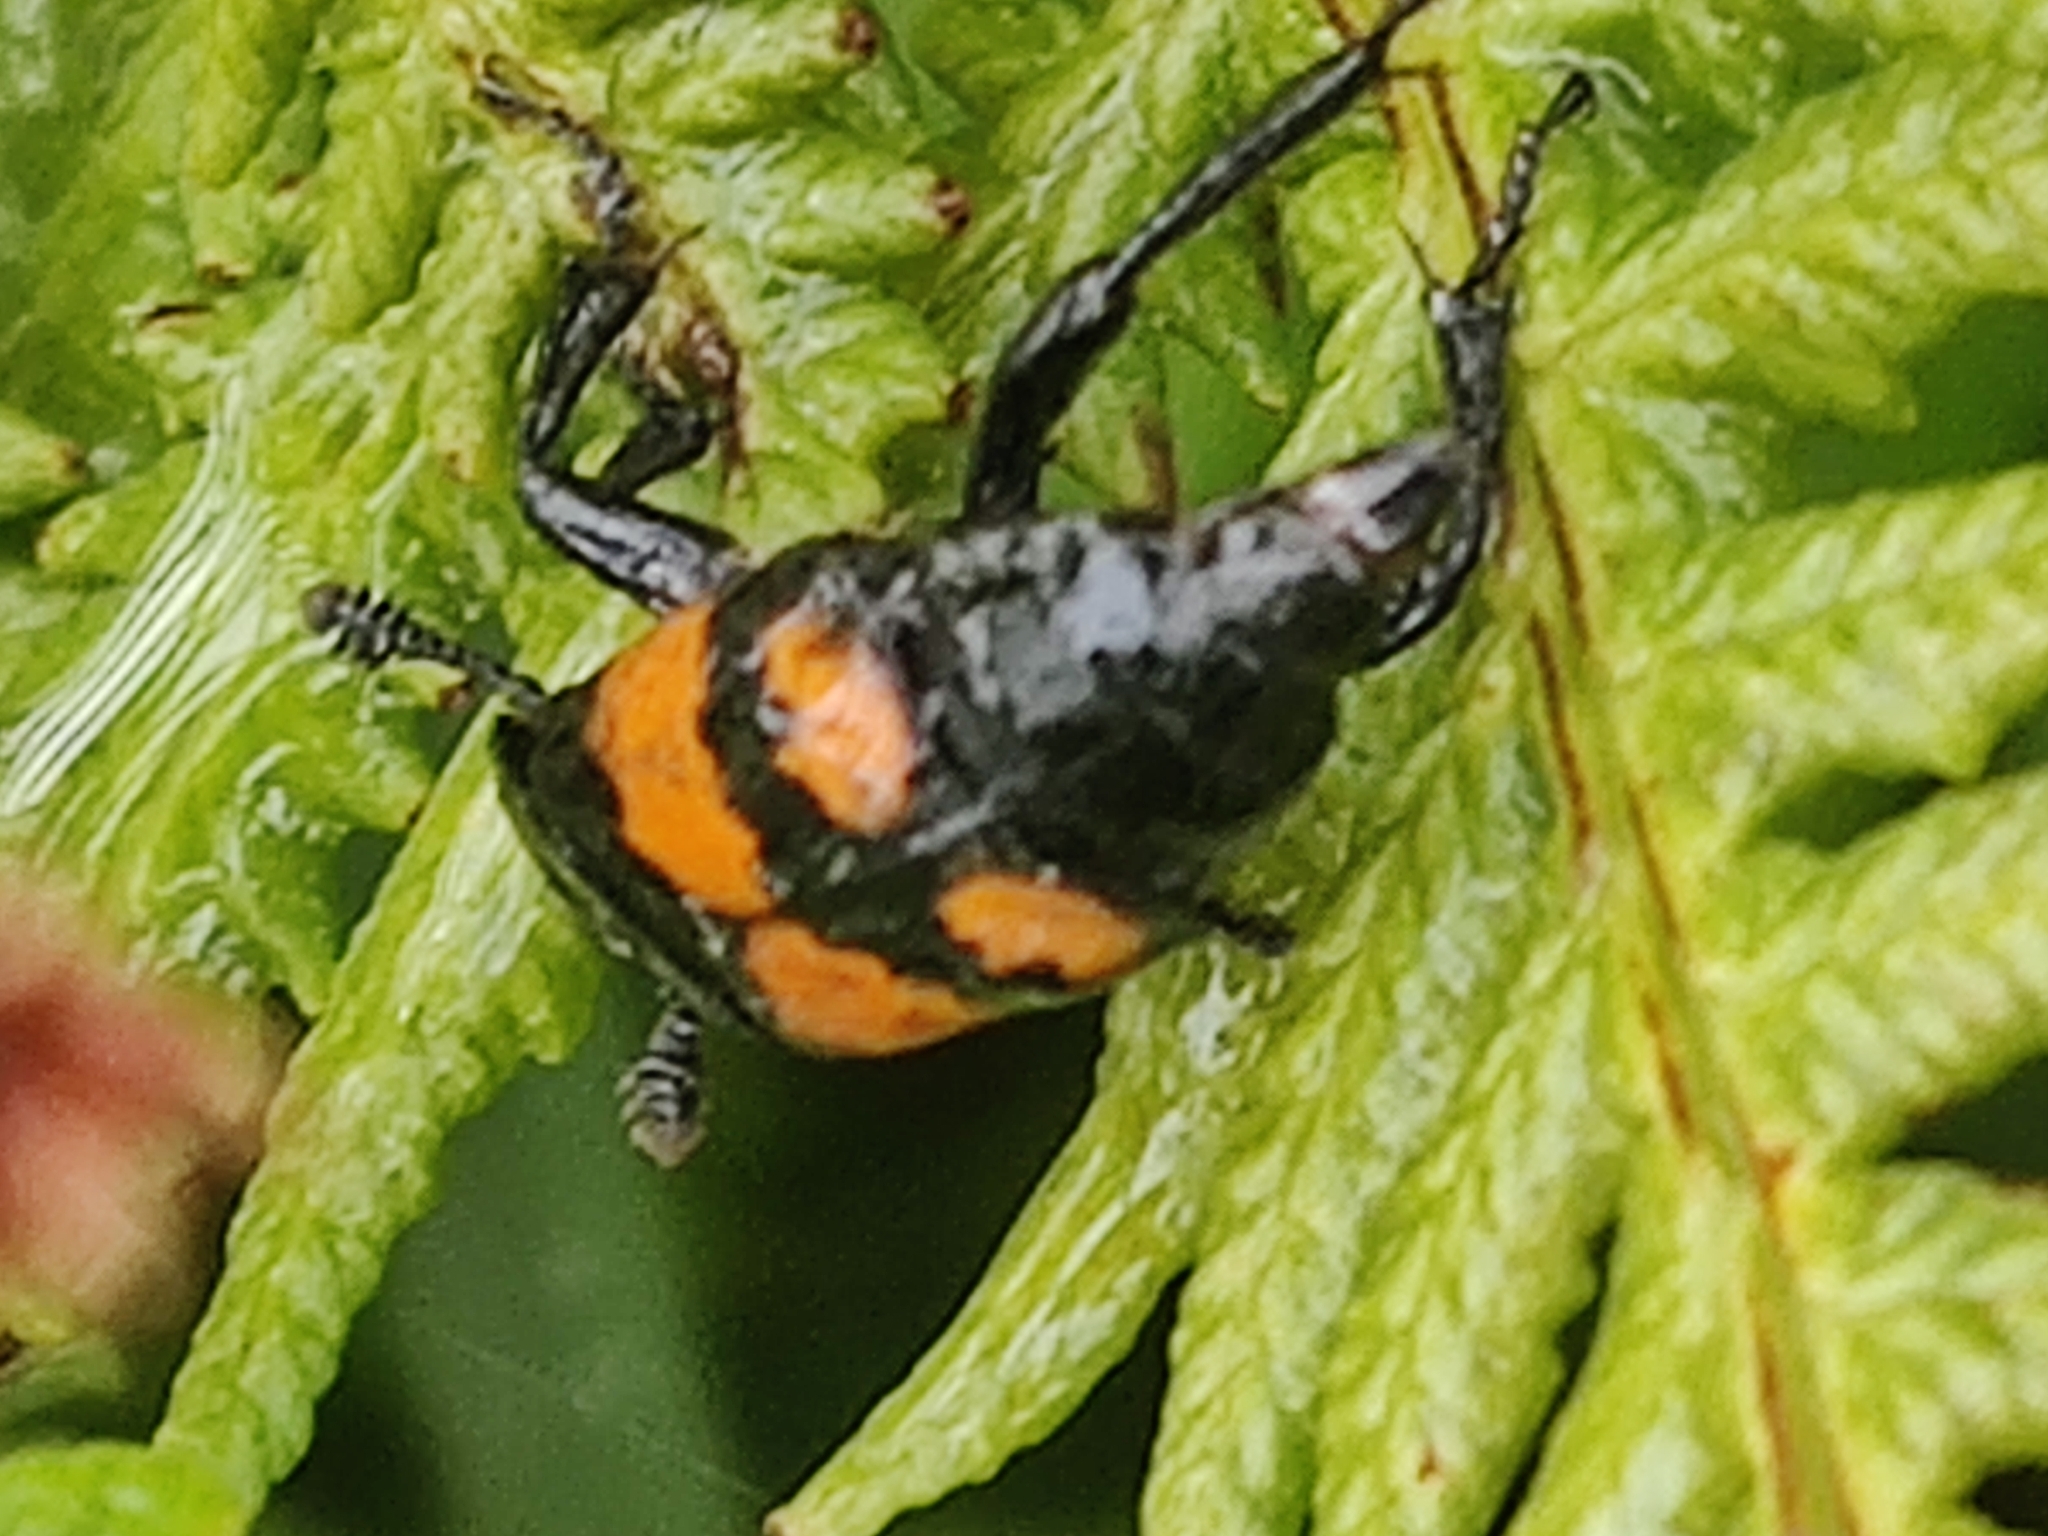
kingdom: Animalia
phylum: Arthropoda
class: Insecta
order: Coleoptera
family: Staphylinidae
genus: Nicrophorus
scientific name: Nicrophorus vespilloides
